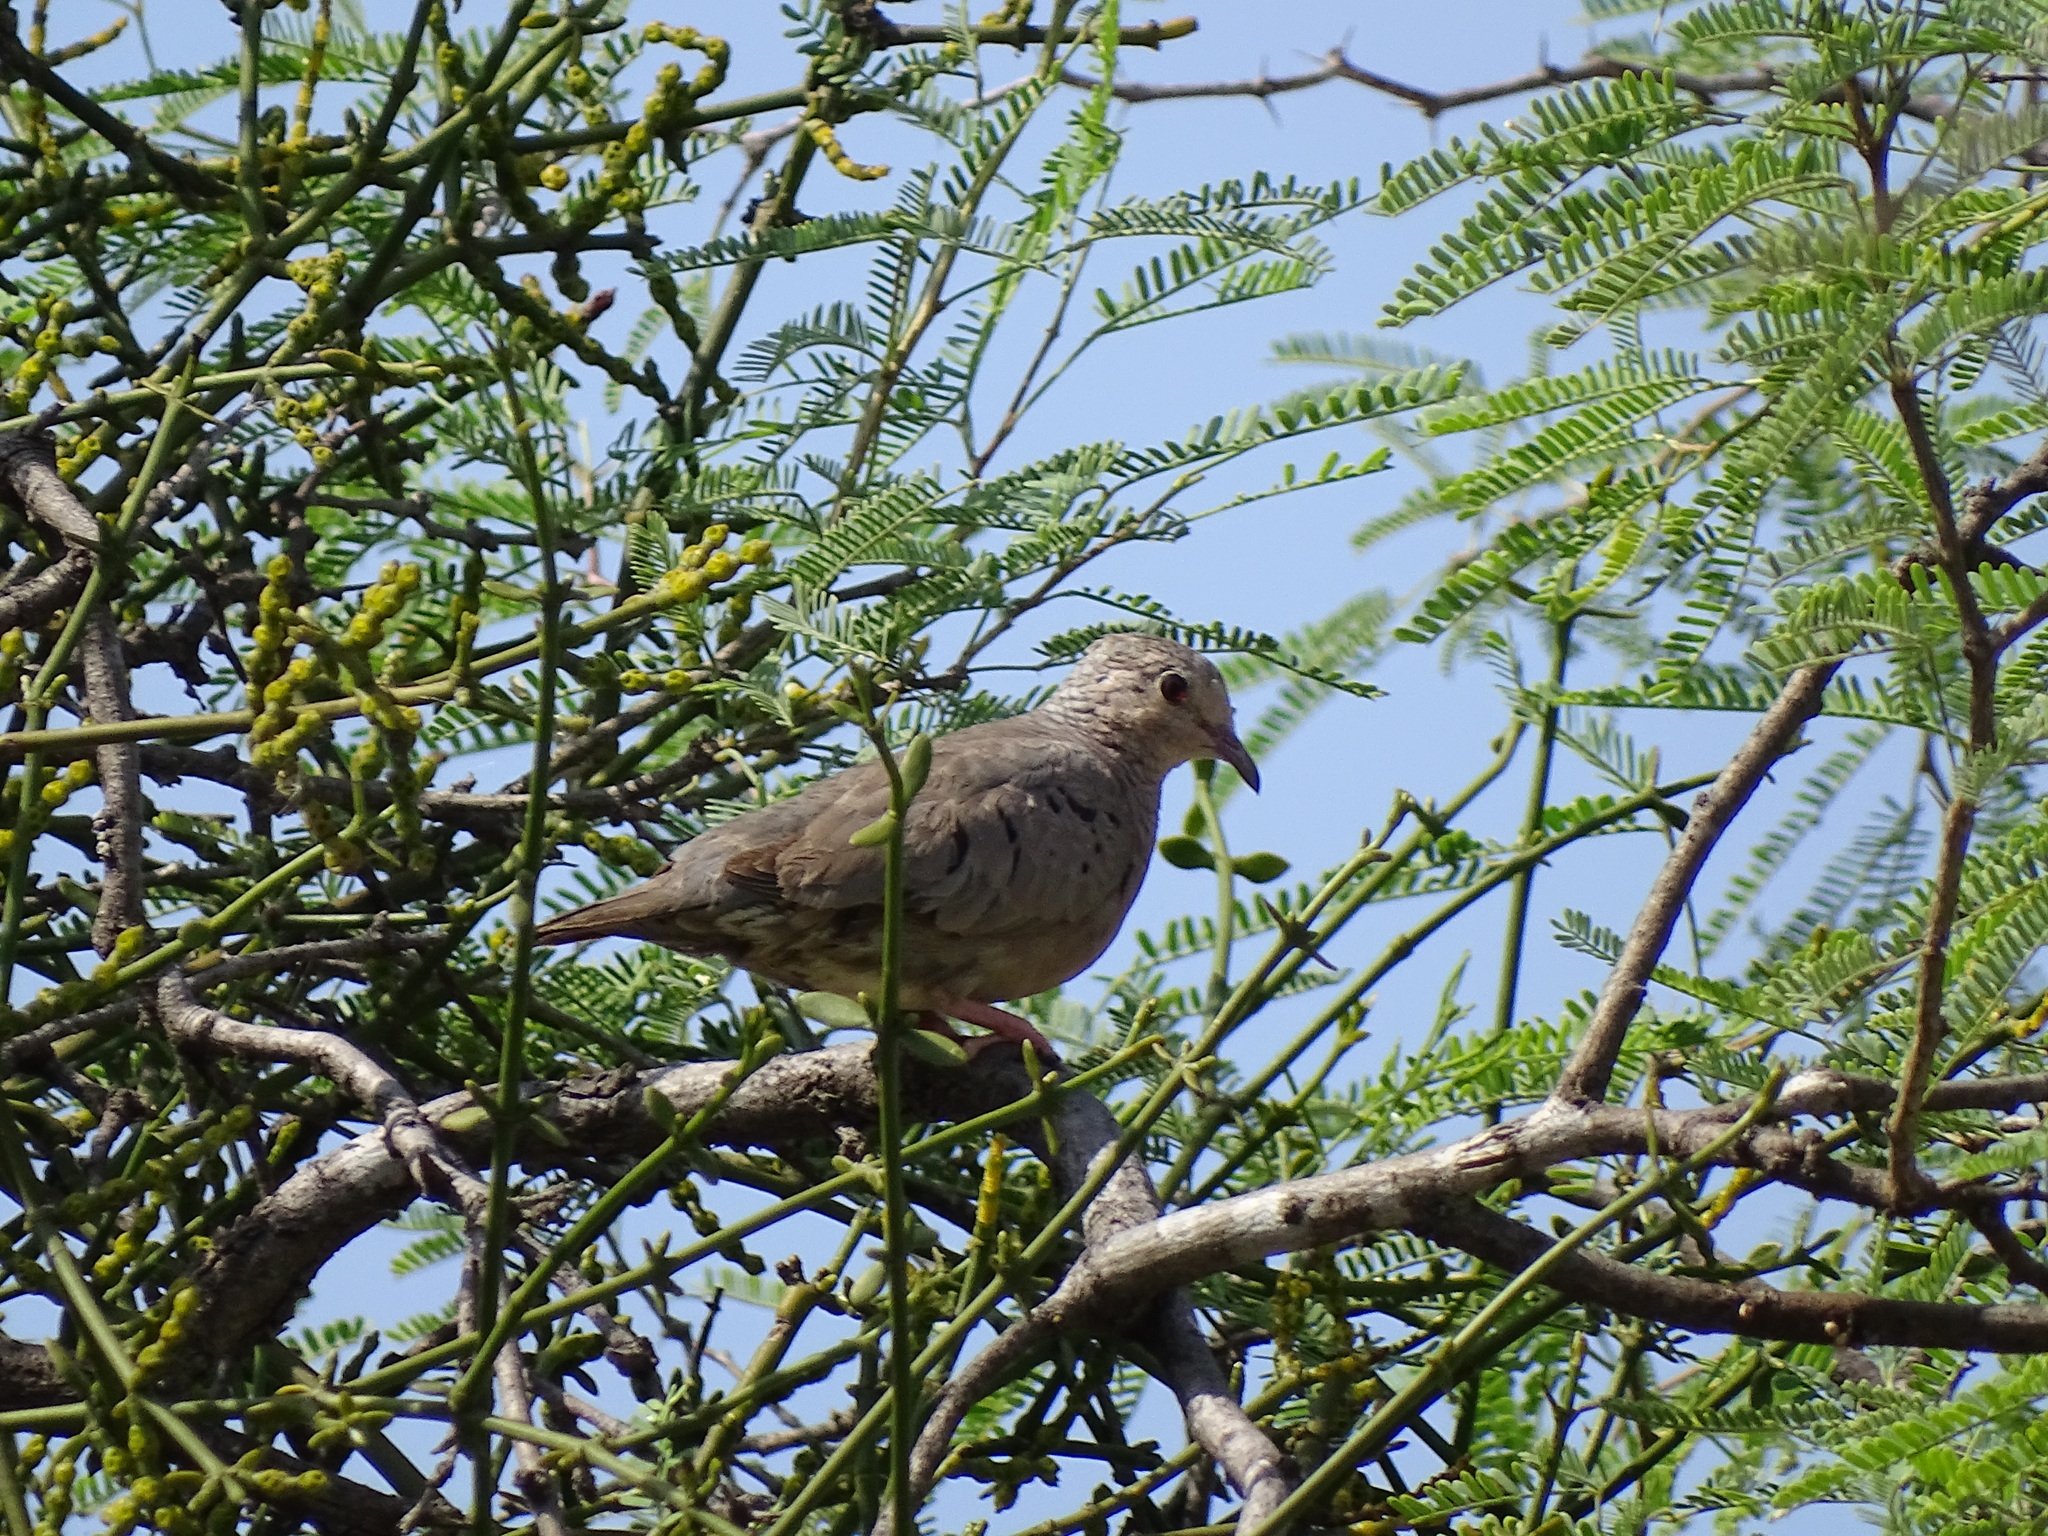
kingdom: Animalia
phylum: Chordata
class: Aves
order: Columbiformes
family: Columbidae
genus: Columbina
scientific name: Columbina passerina
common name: Common ground-dove
